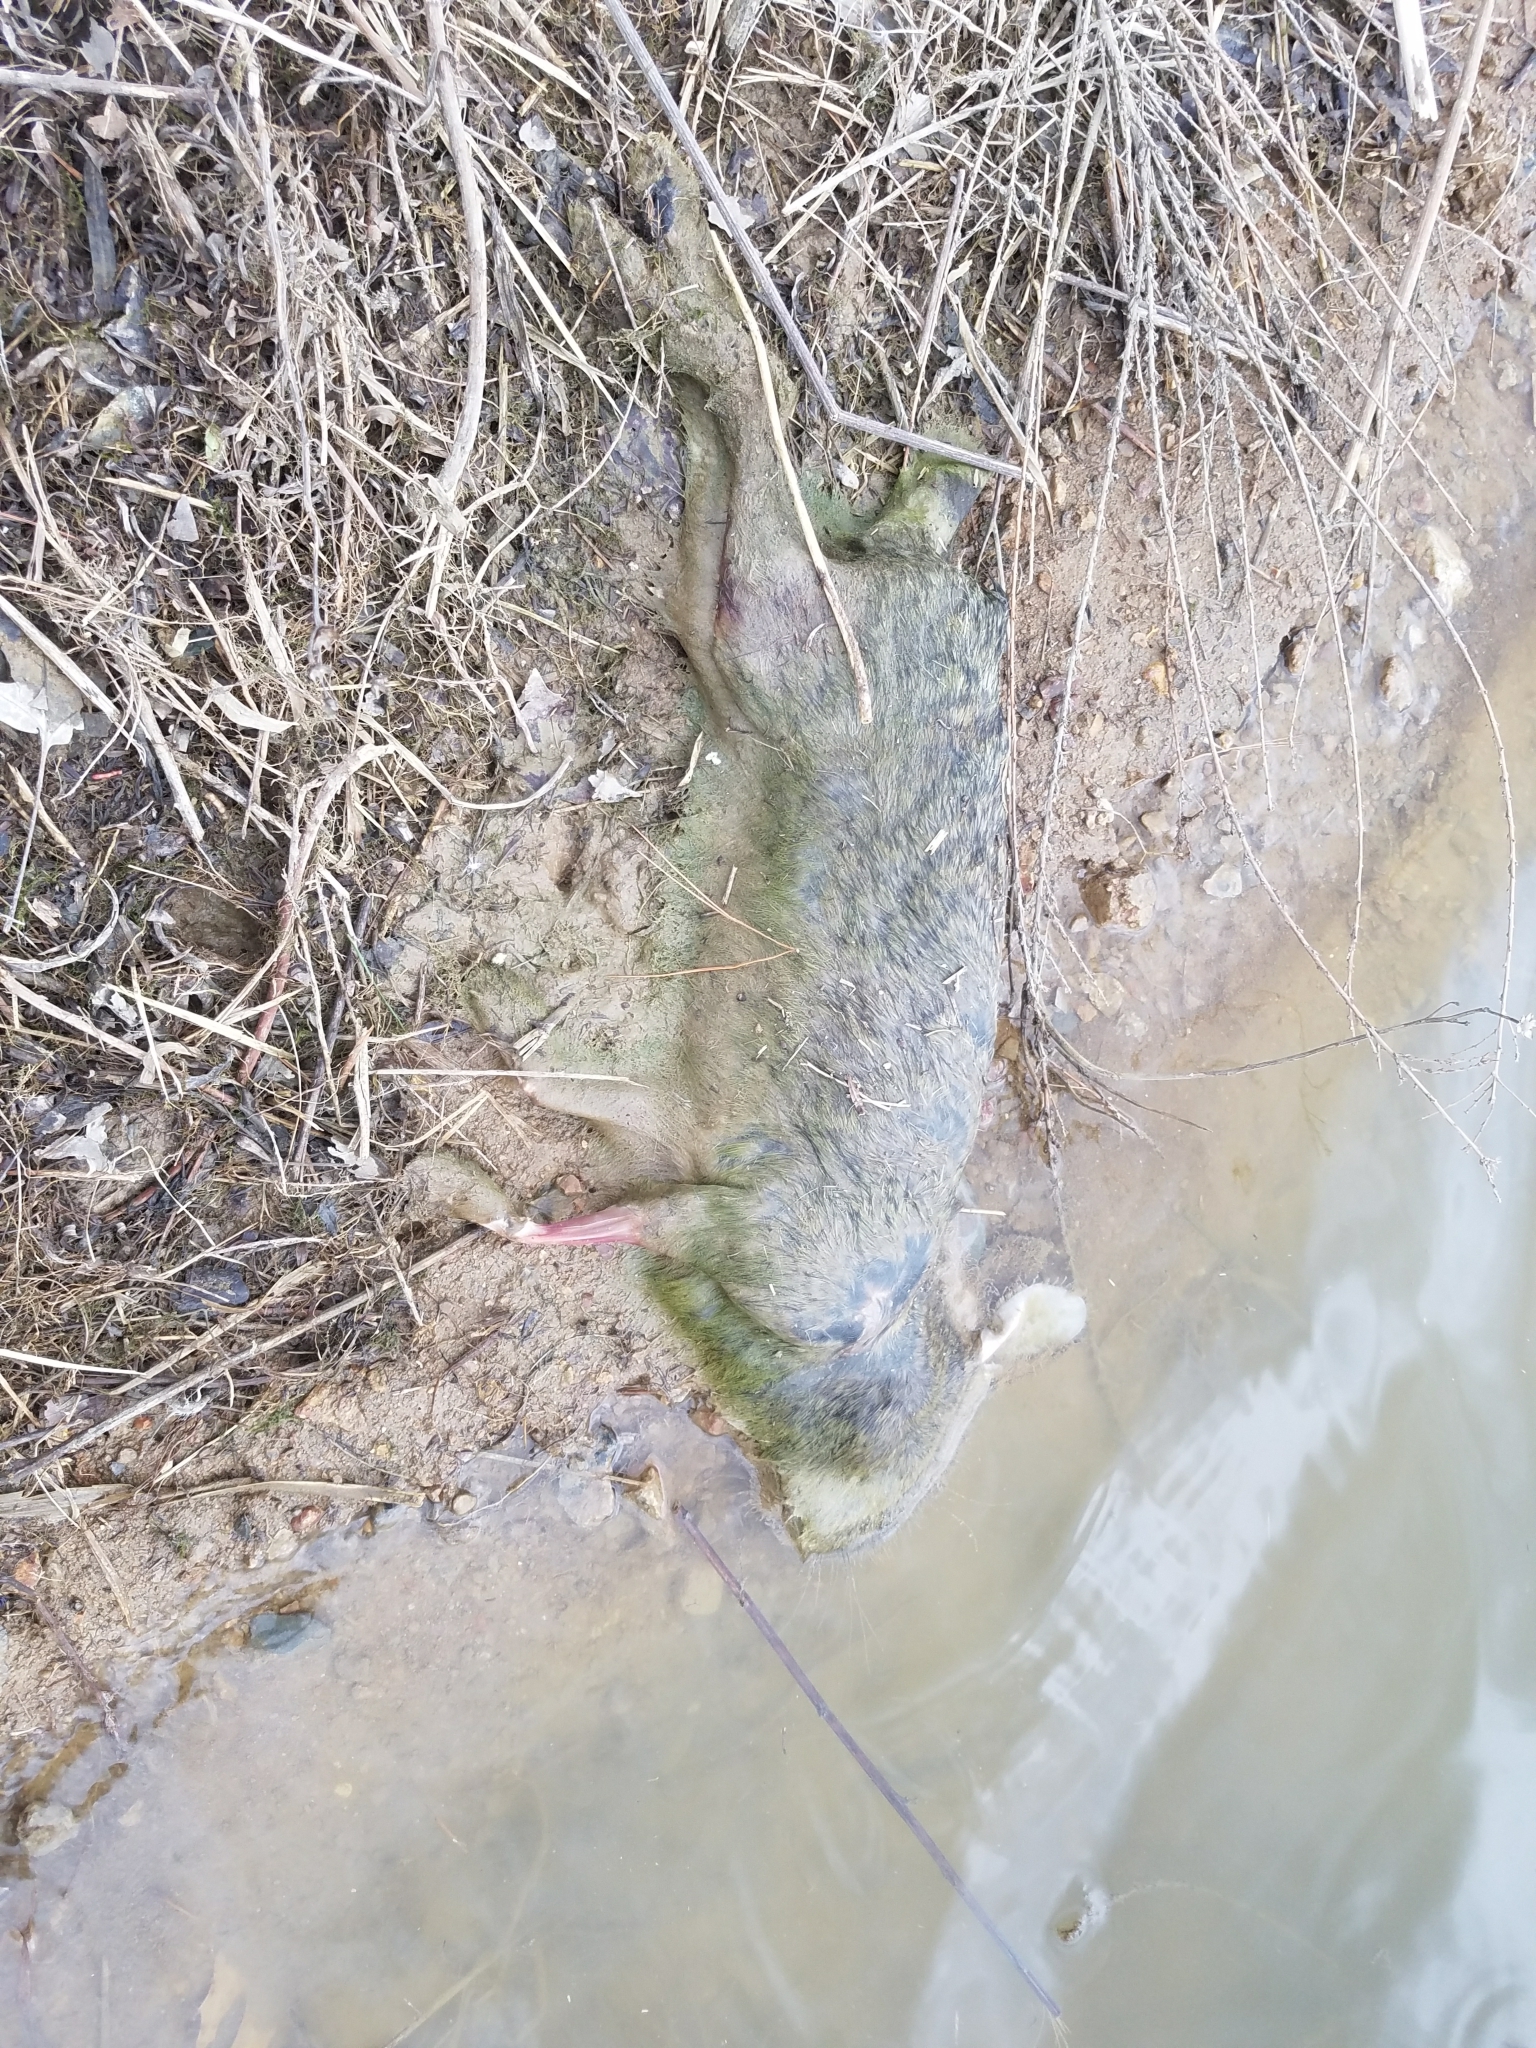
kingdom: Animalia
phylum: Chordata
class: Mammalia
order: Lagomorpha
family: Leporidae
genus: Sylvilagus
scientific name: Sylvilagus floridanus
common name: Eastern cottontail
